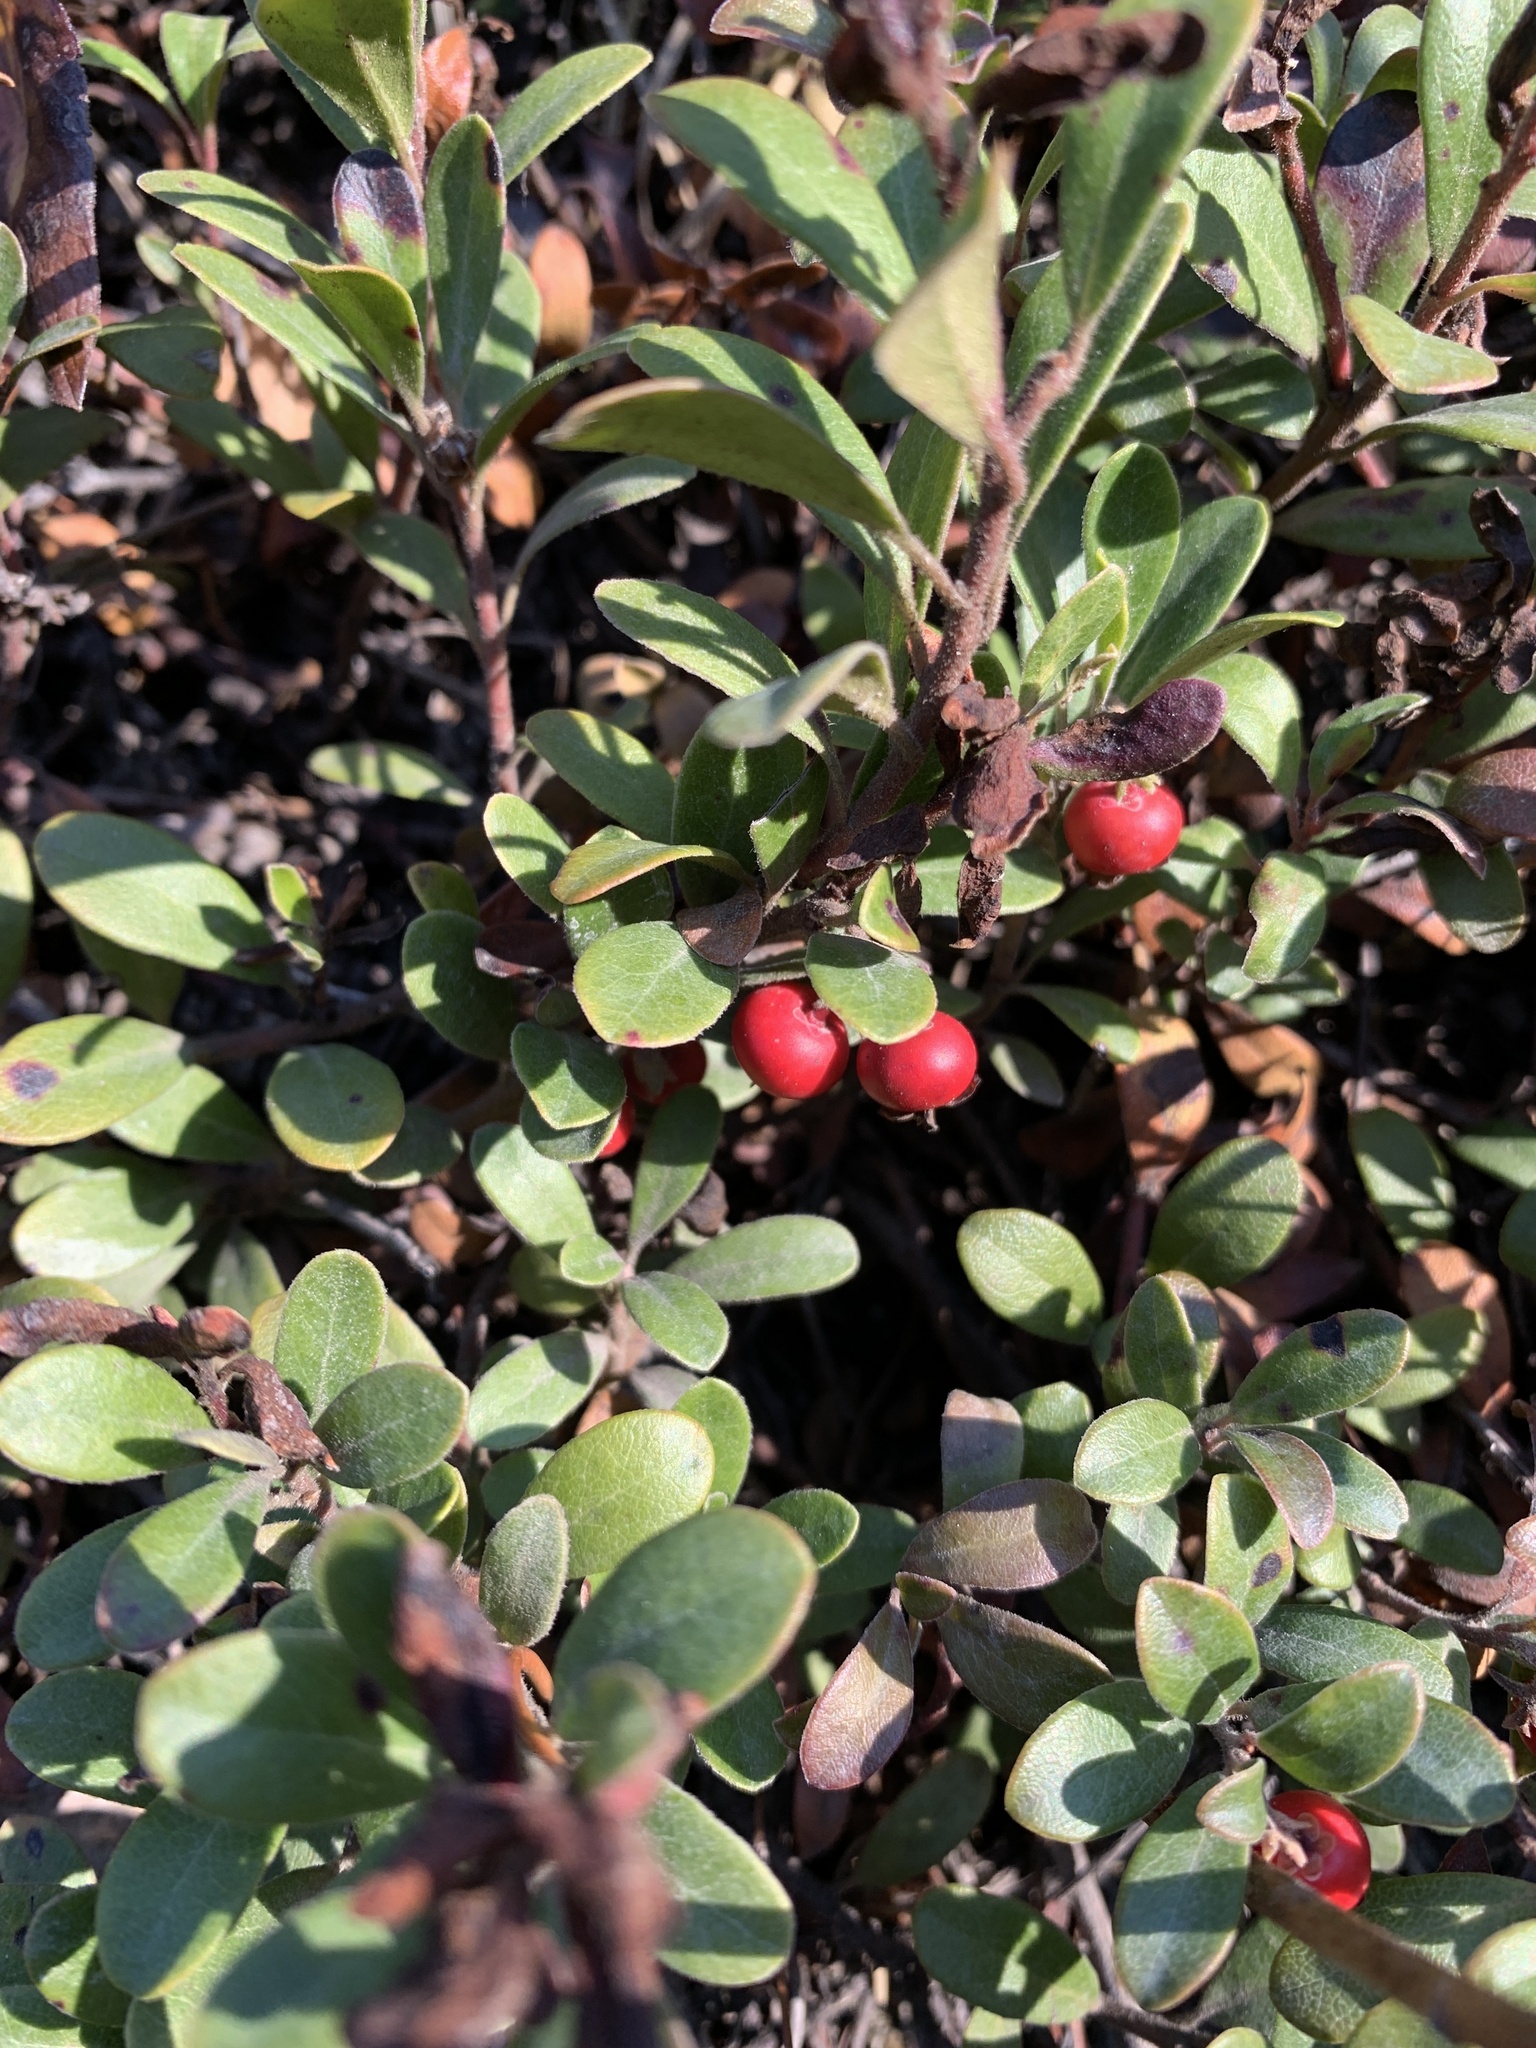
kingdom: Plantae
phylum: Tracheophyta
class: Magnoliopsida
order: Ericales
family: Ericaceae
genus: Arctostaphylos
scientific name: Arctostaphylos uva-ursi
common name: Bearberry
